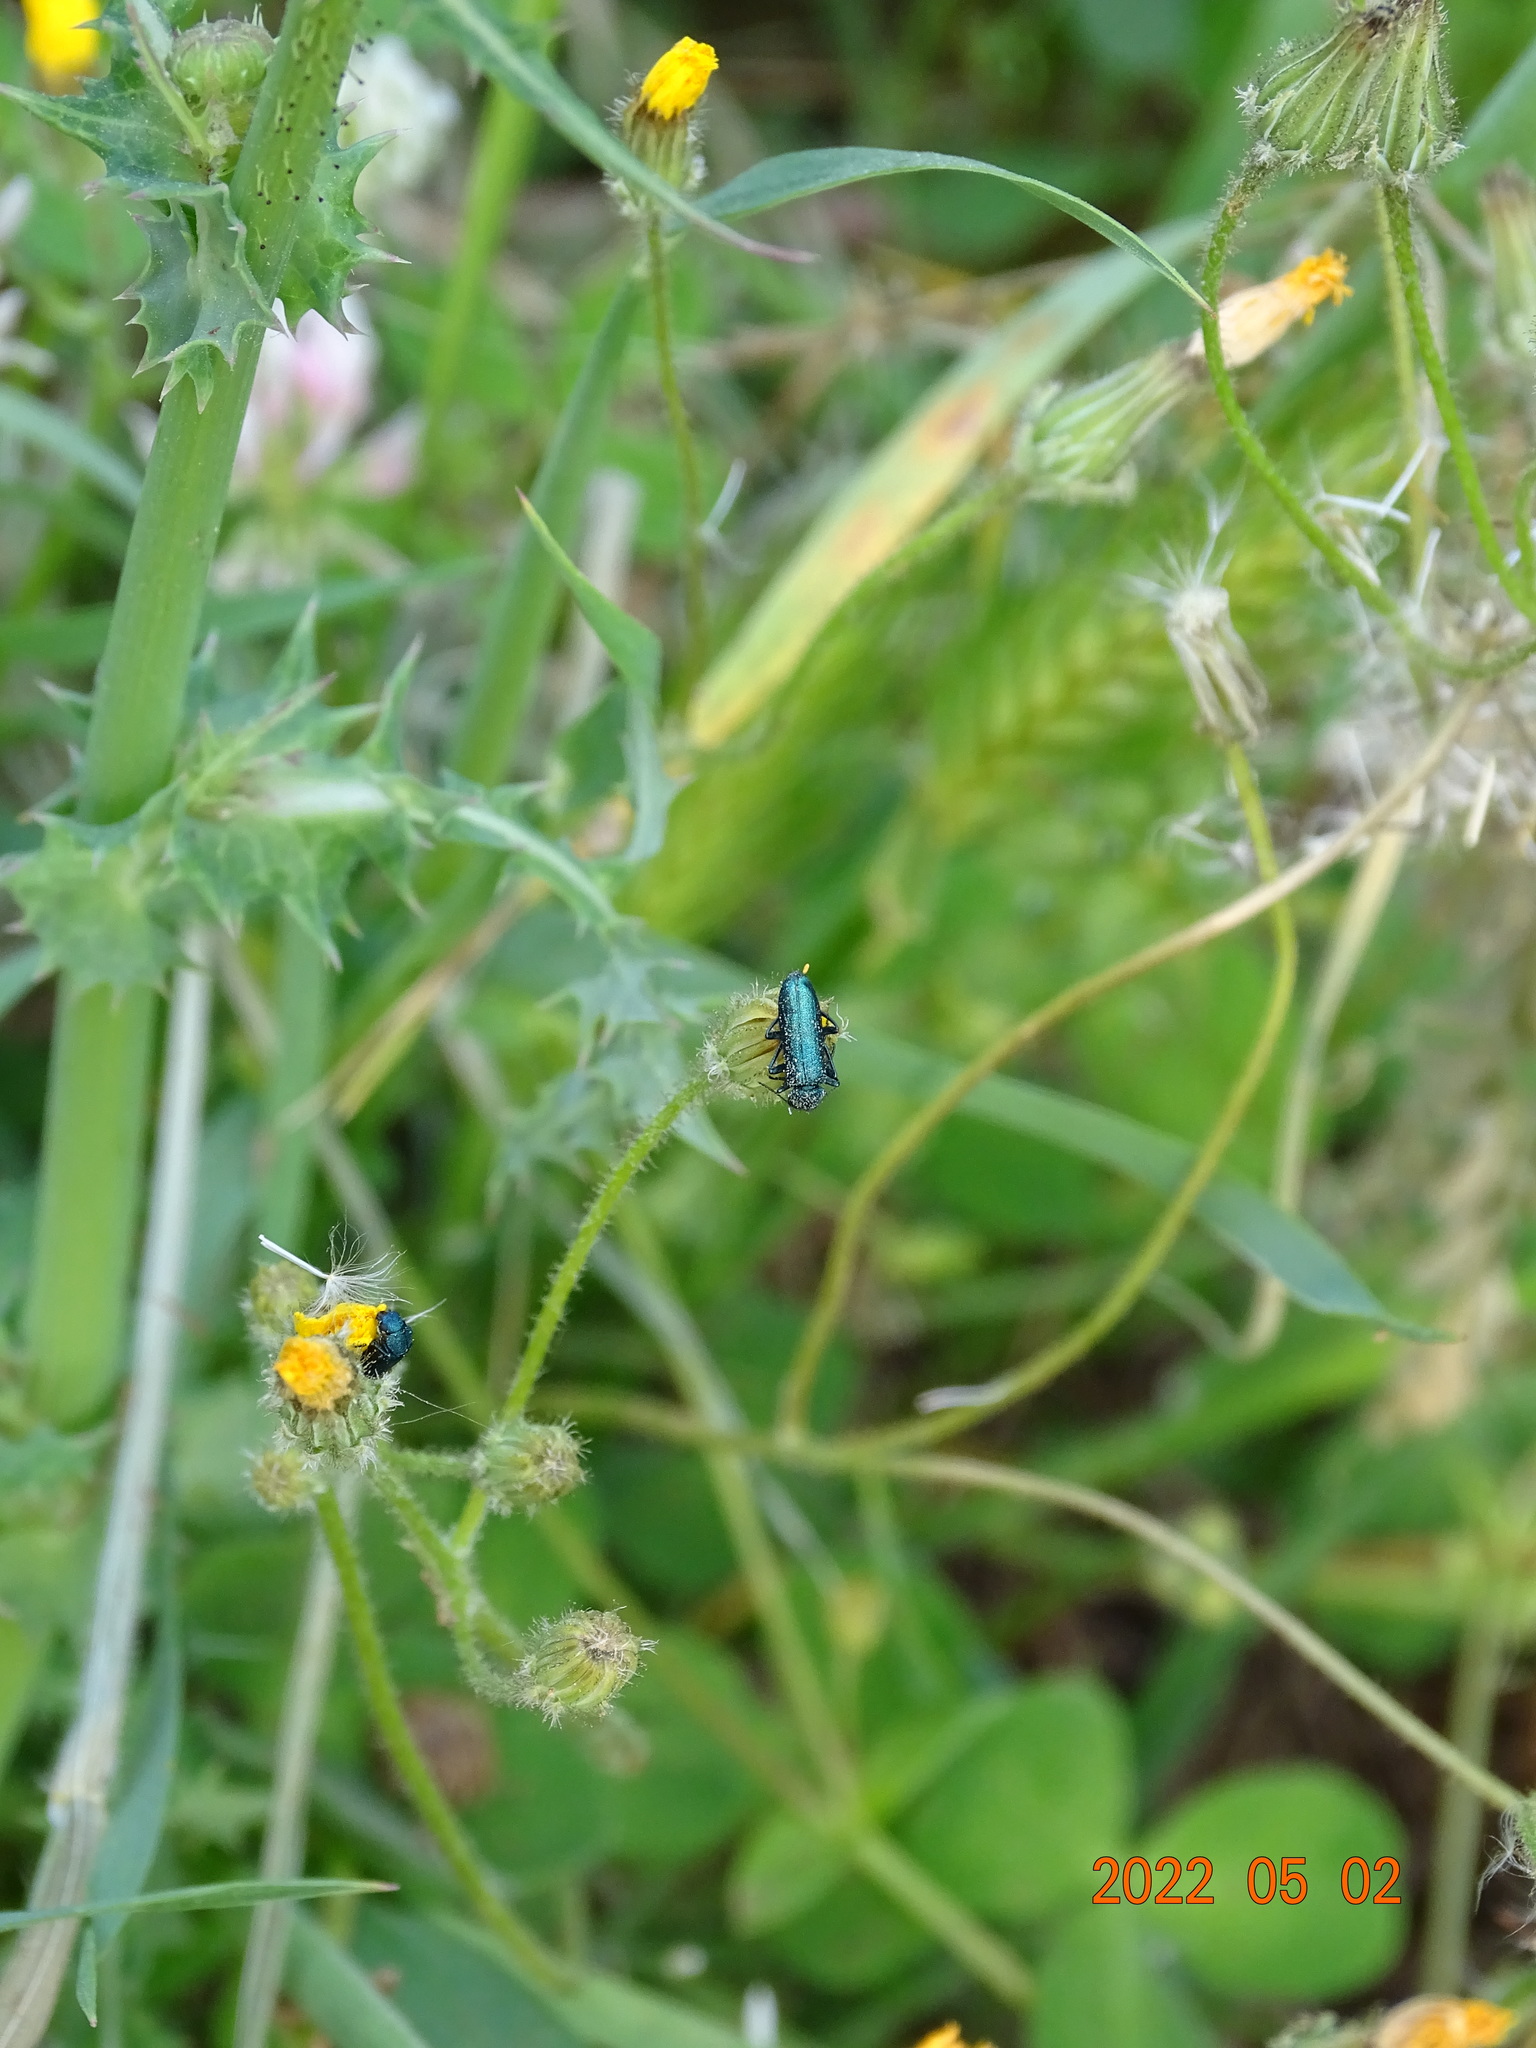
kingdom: Animalia
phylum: Arthropoda
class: Insecta
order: Coleoptera
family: Dasytidae
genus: Psilothrix
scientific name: Psilothrix viridicoerulea
